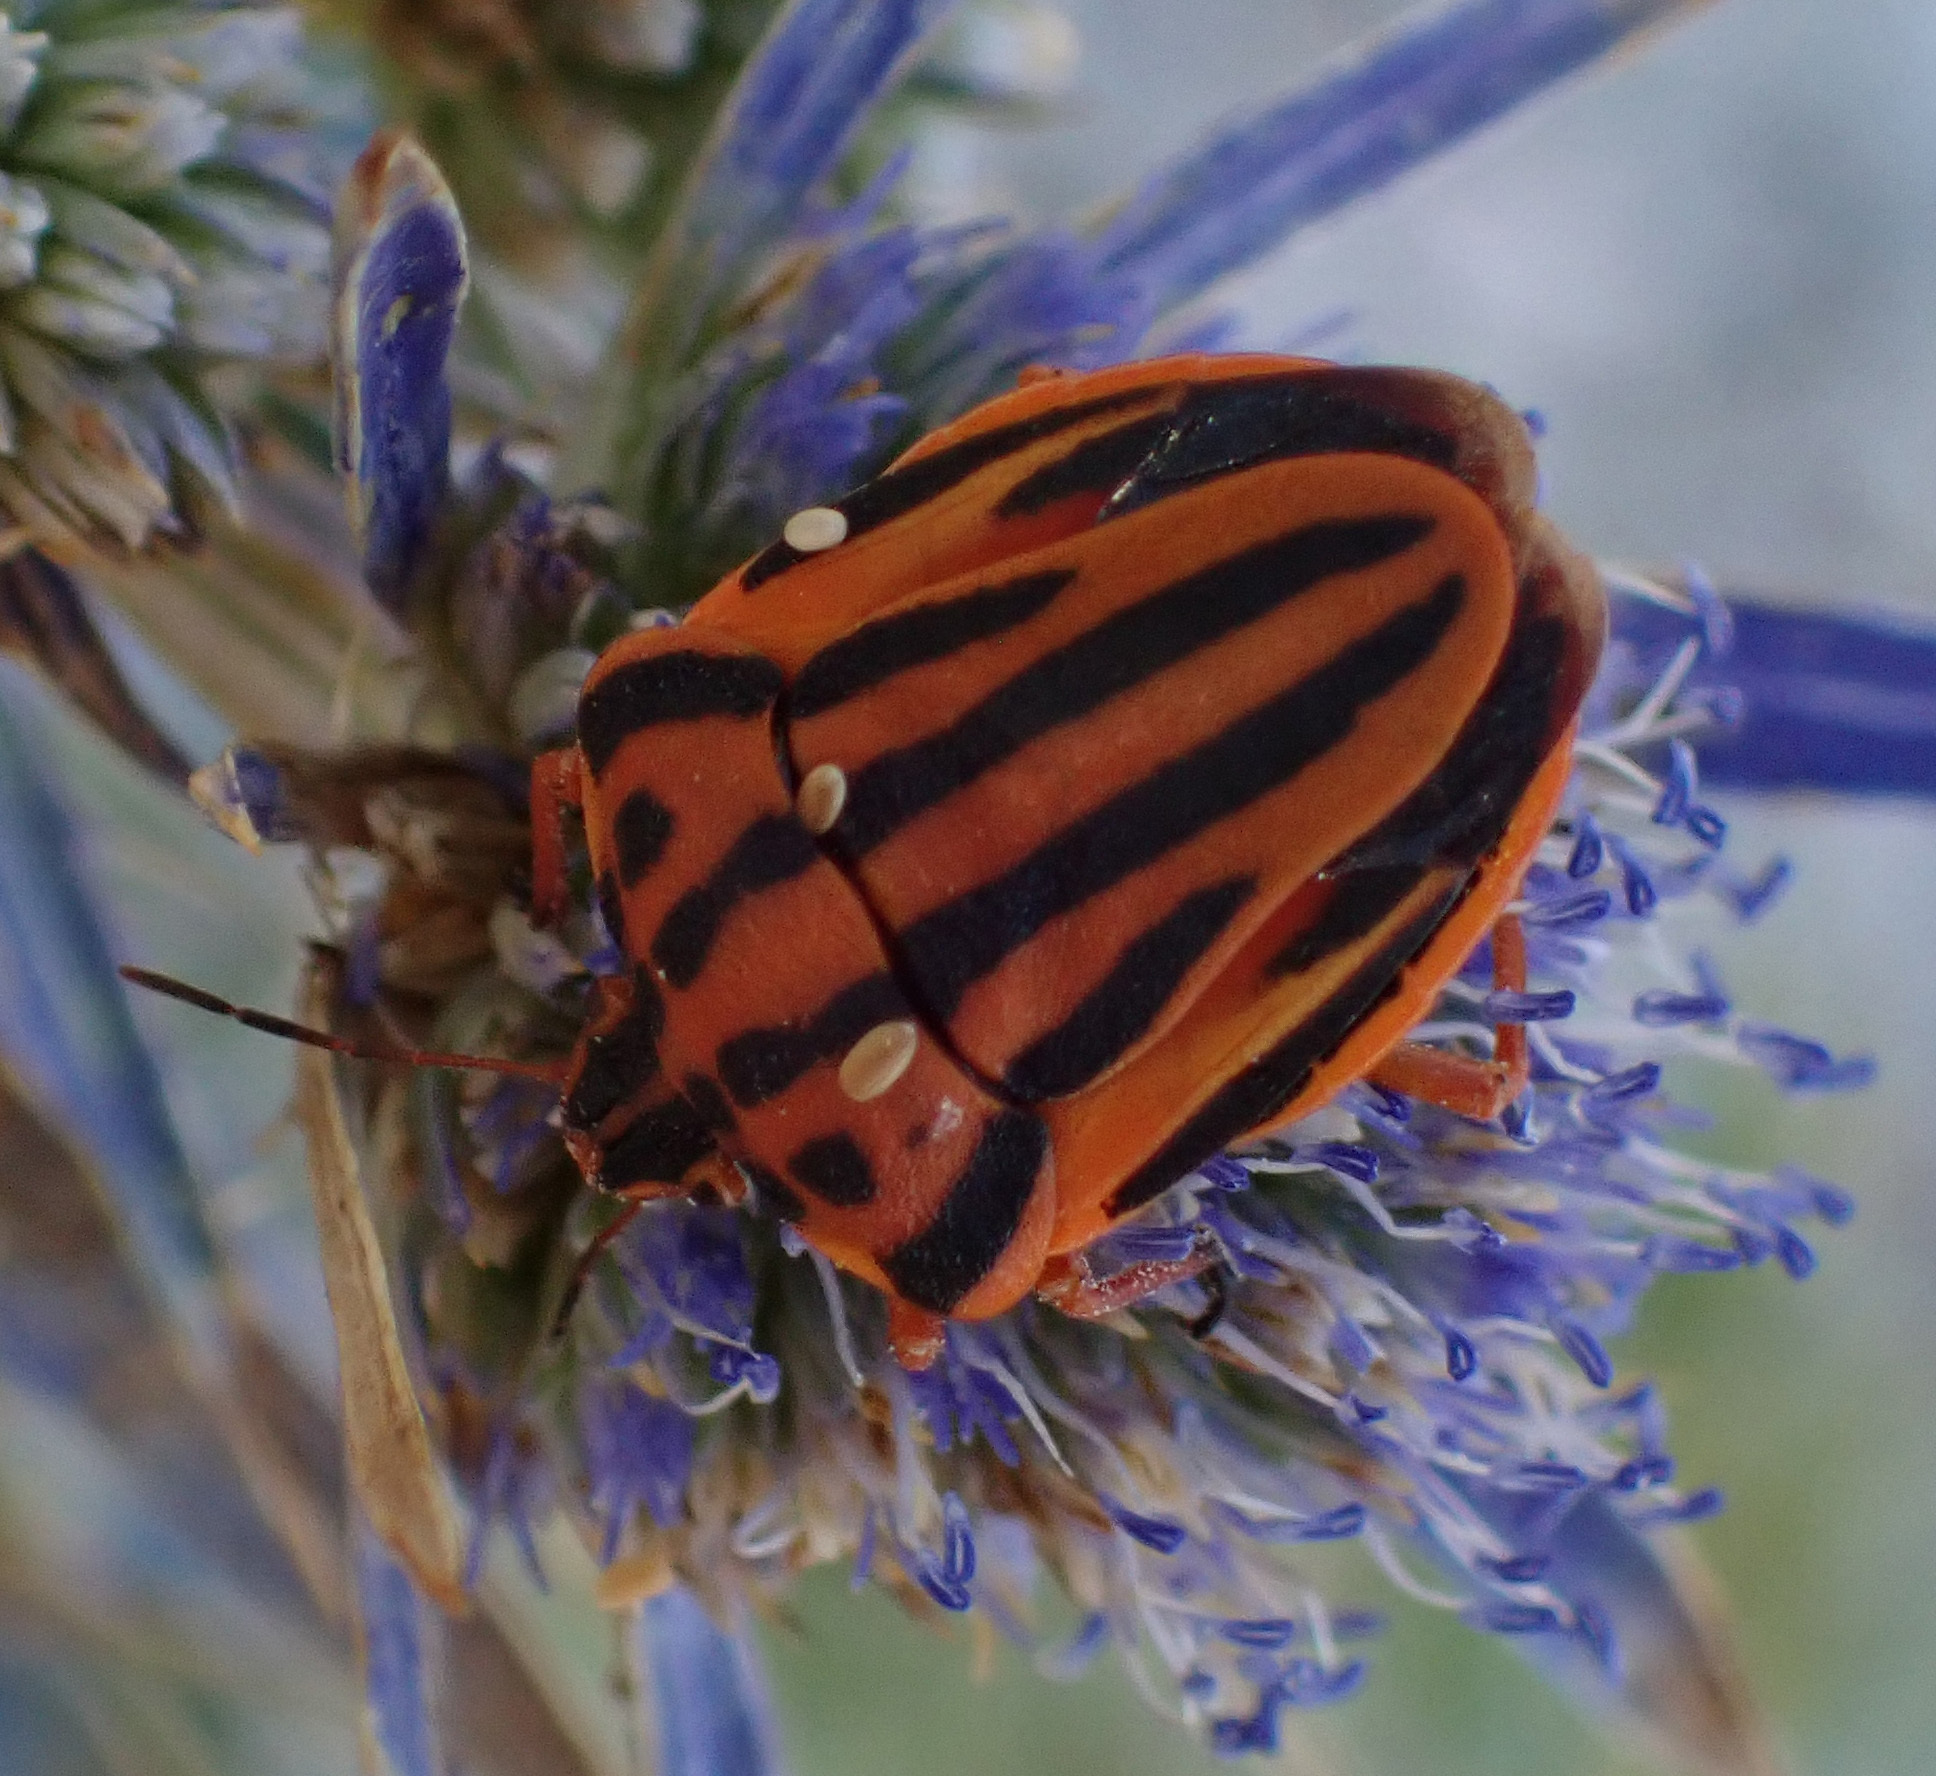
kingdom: Animalia
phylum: Arthropoda
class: Insecta
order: Hemiptera
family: Pentatomidae
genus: Graphosoma
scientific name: Graphosoma semipunctatum
